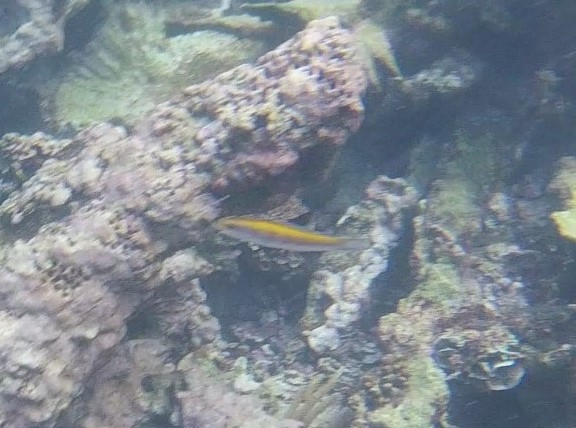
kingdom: Animalia
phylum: Chordata
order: Perciformes
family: Labridae
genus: Thalassoma
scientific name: Thalassoma bifasciatum
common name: Bluehead wrasse
